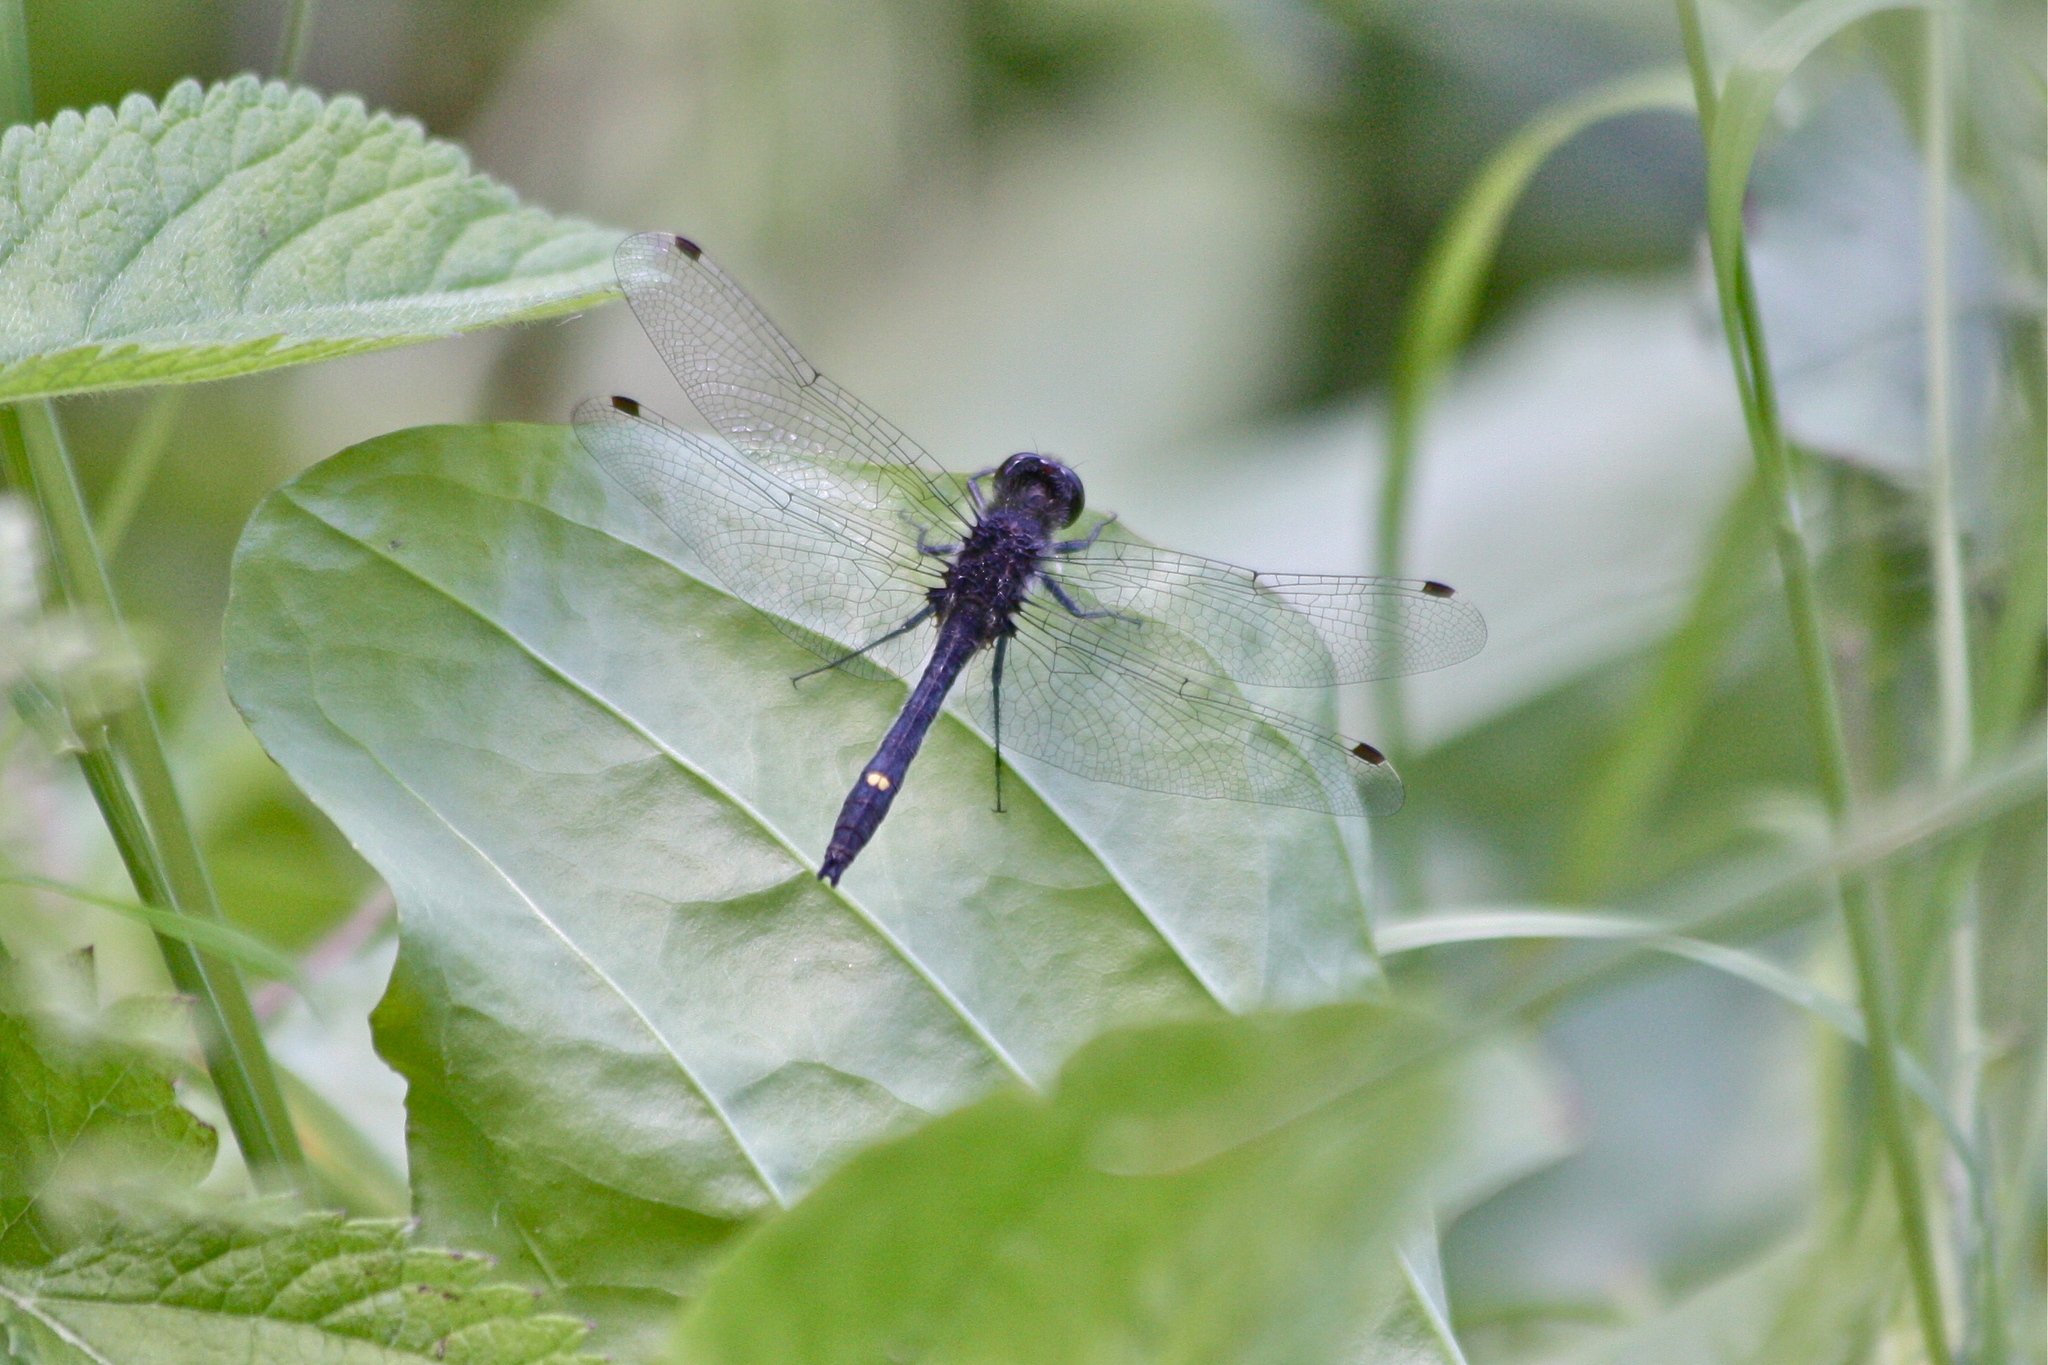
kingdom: Animalia
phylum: Arthropoda
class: Insecta
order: Odonata
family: Libellulidae
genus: Leucorrhinia
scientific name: Leucorrhinia intacta
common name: Dot-tailed whiteface
